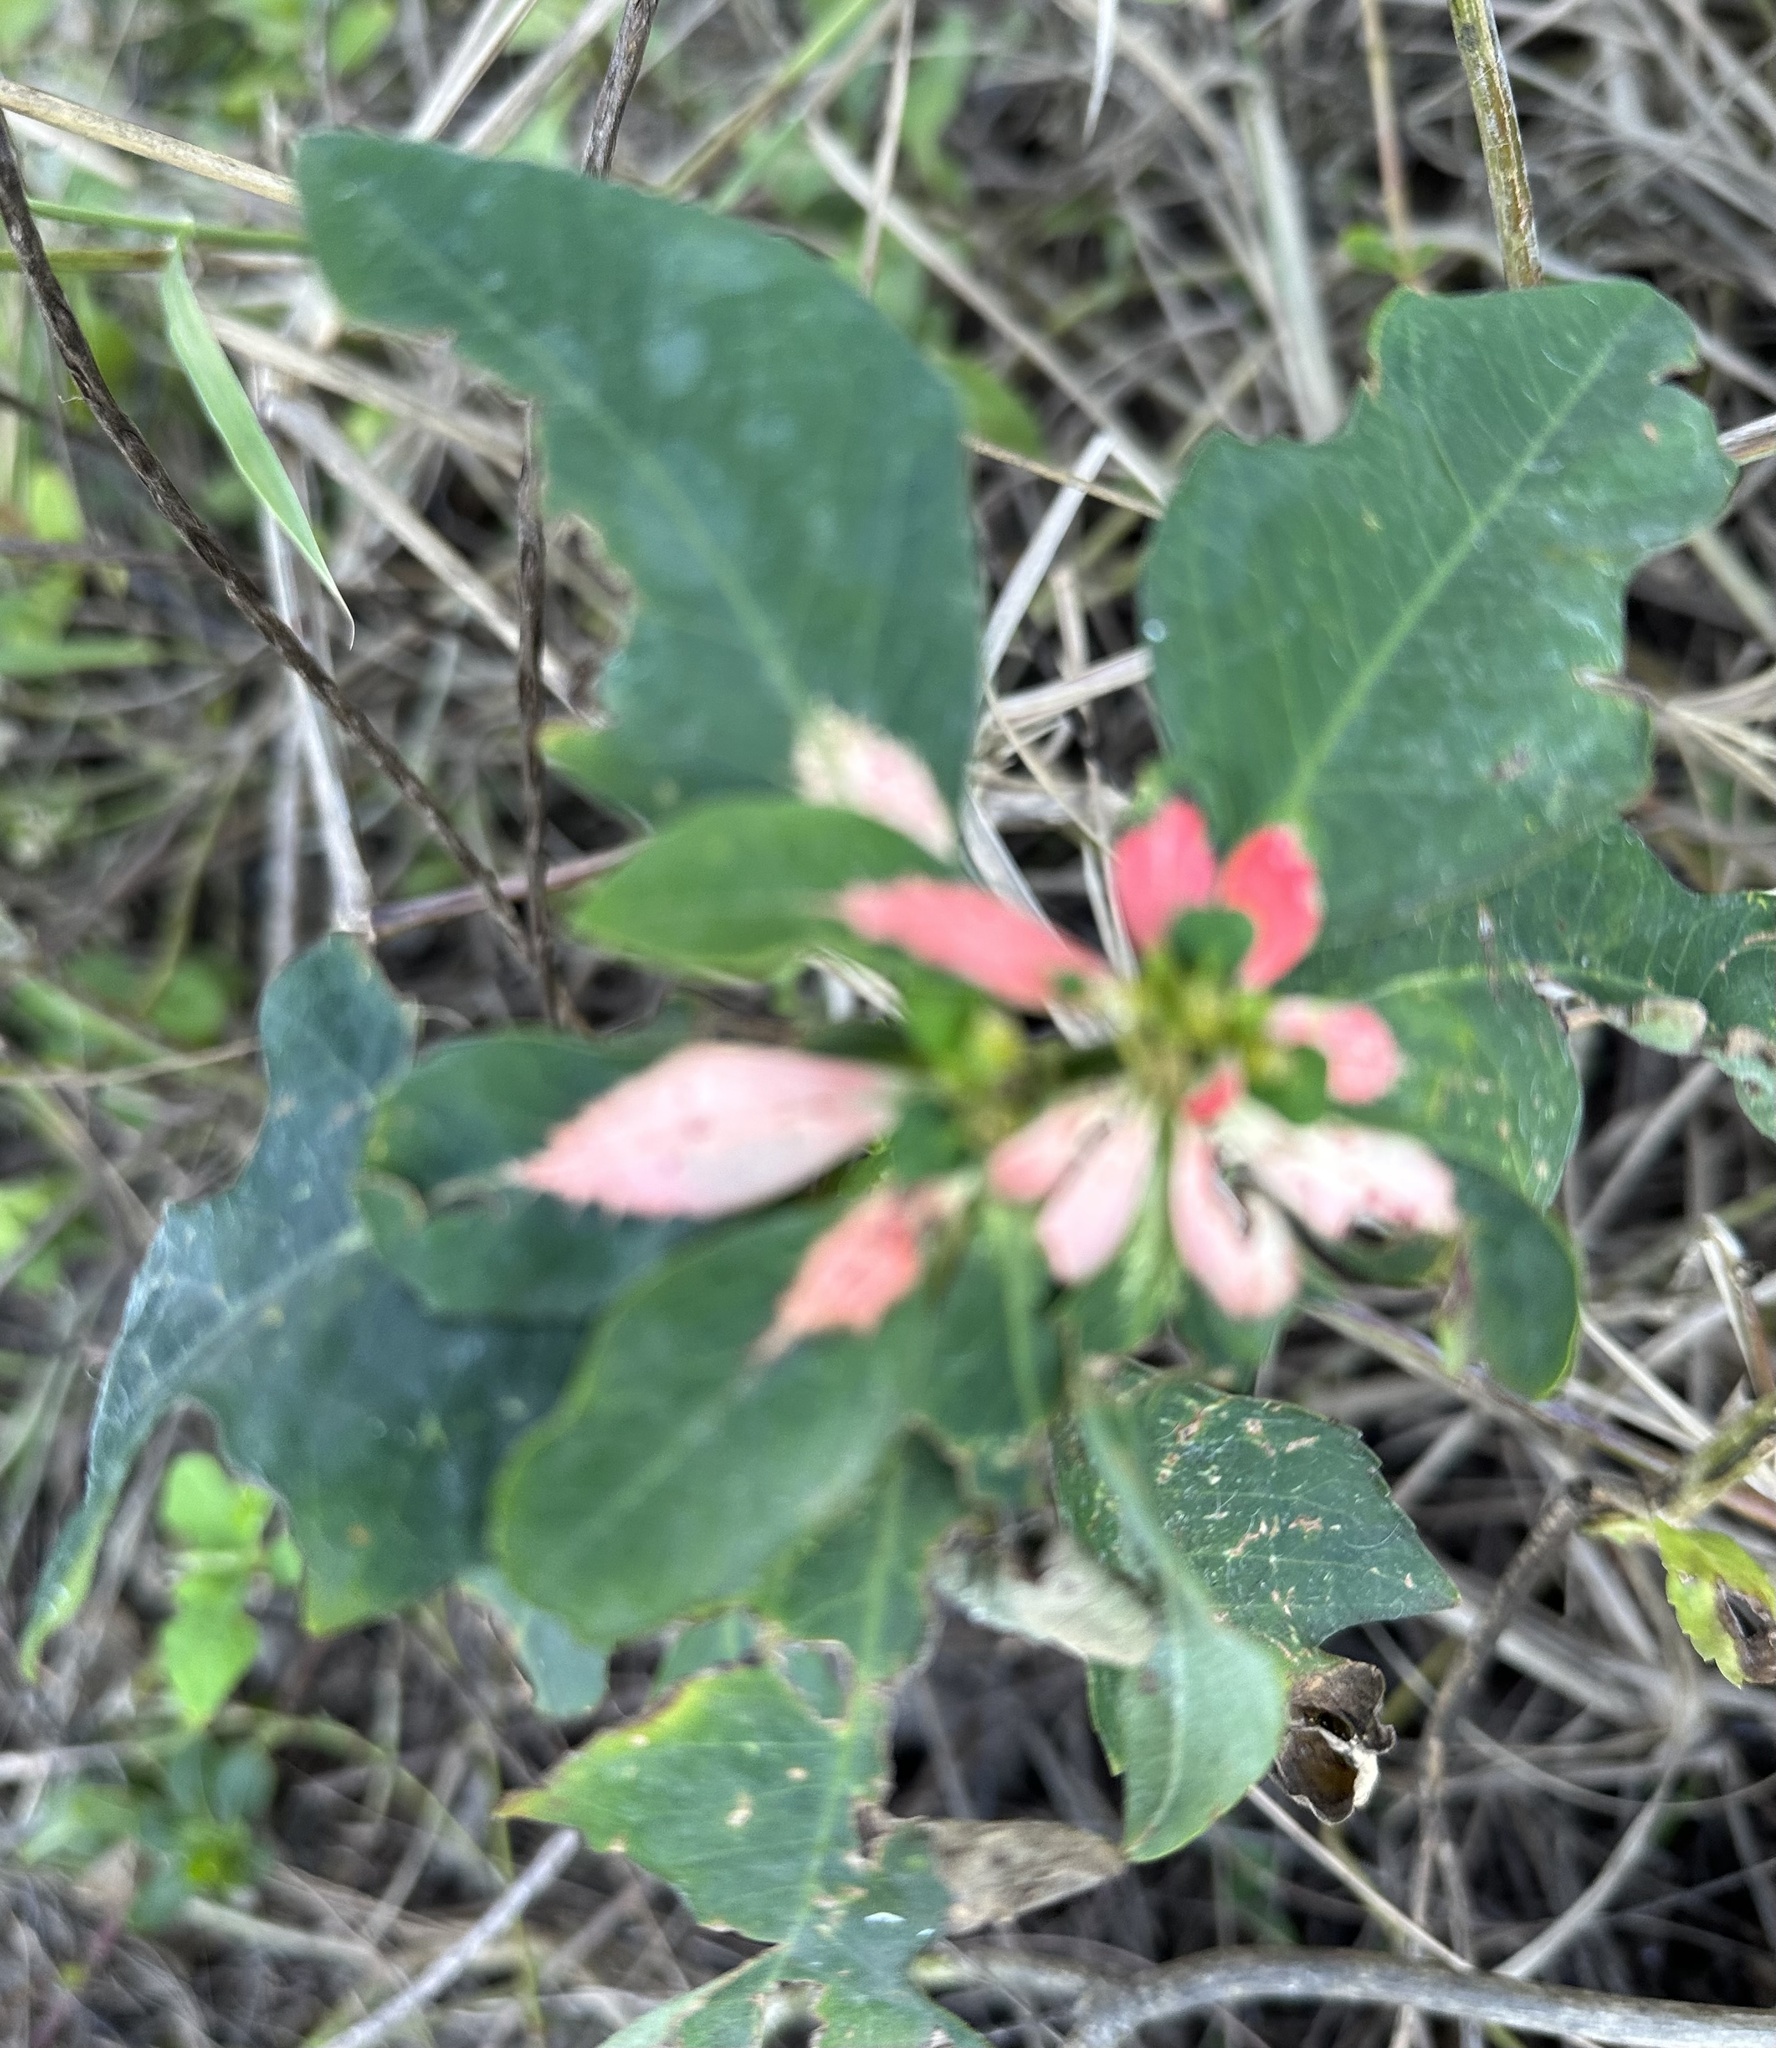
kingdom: Plantae
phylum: Tracheophyta
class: Magnoliopsida
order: Malpighiales
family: Euphorbiaceae
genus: Euphorbia
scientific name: Euphorbia heterophylla
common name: Mexican fireplant
